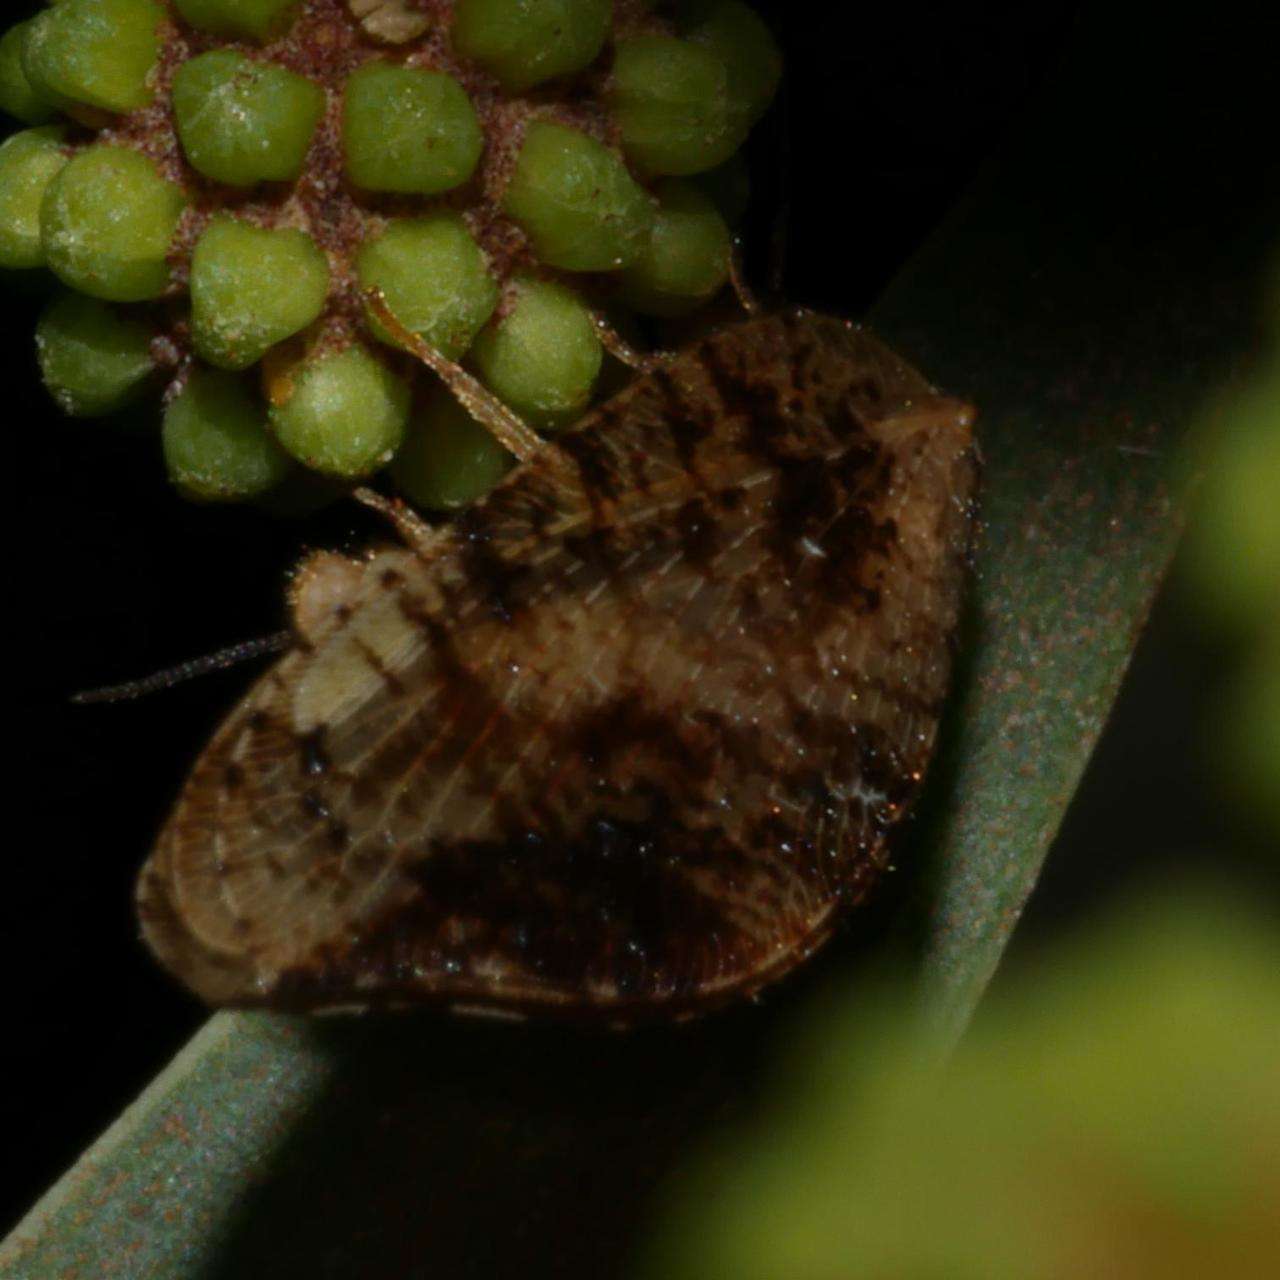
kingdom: Animalia
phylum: Arthropoda
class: Insecta
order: Neuroptera
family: Hemerobiidae
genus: Drepanacra
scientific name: Drepanacra binocula
